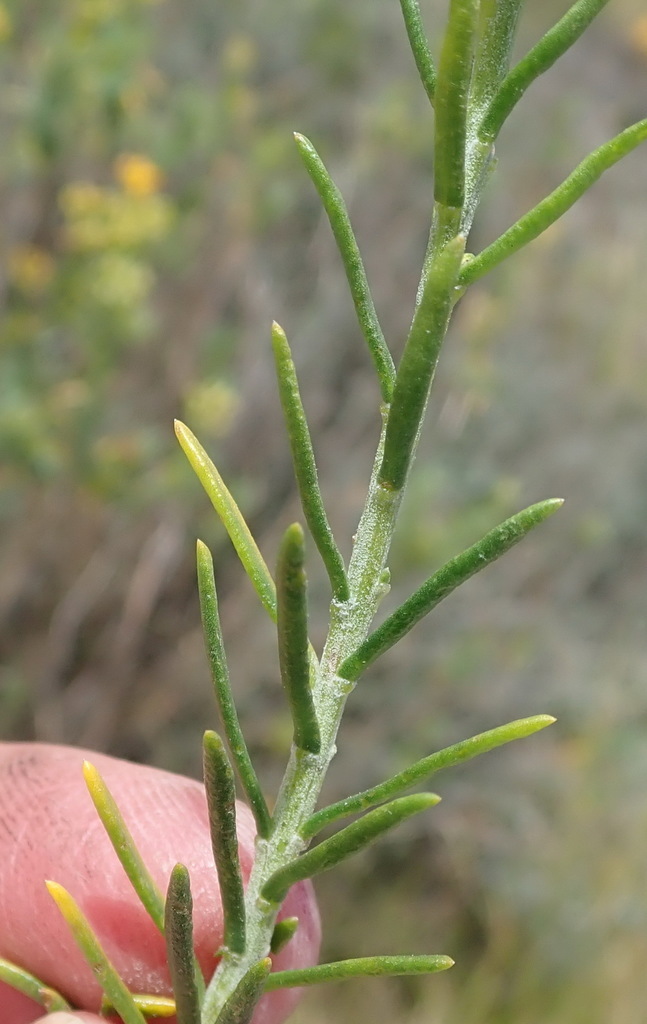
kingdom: Plantae
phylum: Tracheophyta
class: Magnoliopsida
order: Asterales
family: Asteraceae
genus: Athanasia
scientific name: Athanasia filiformis
